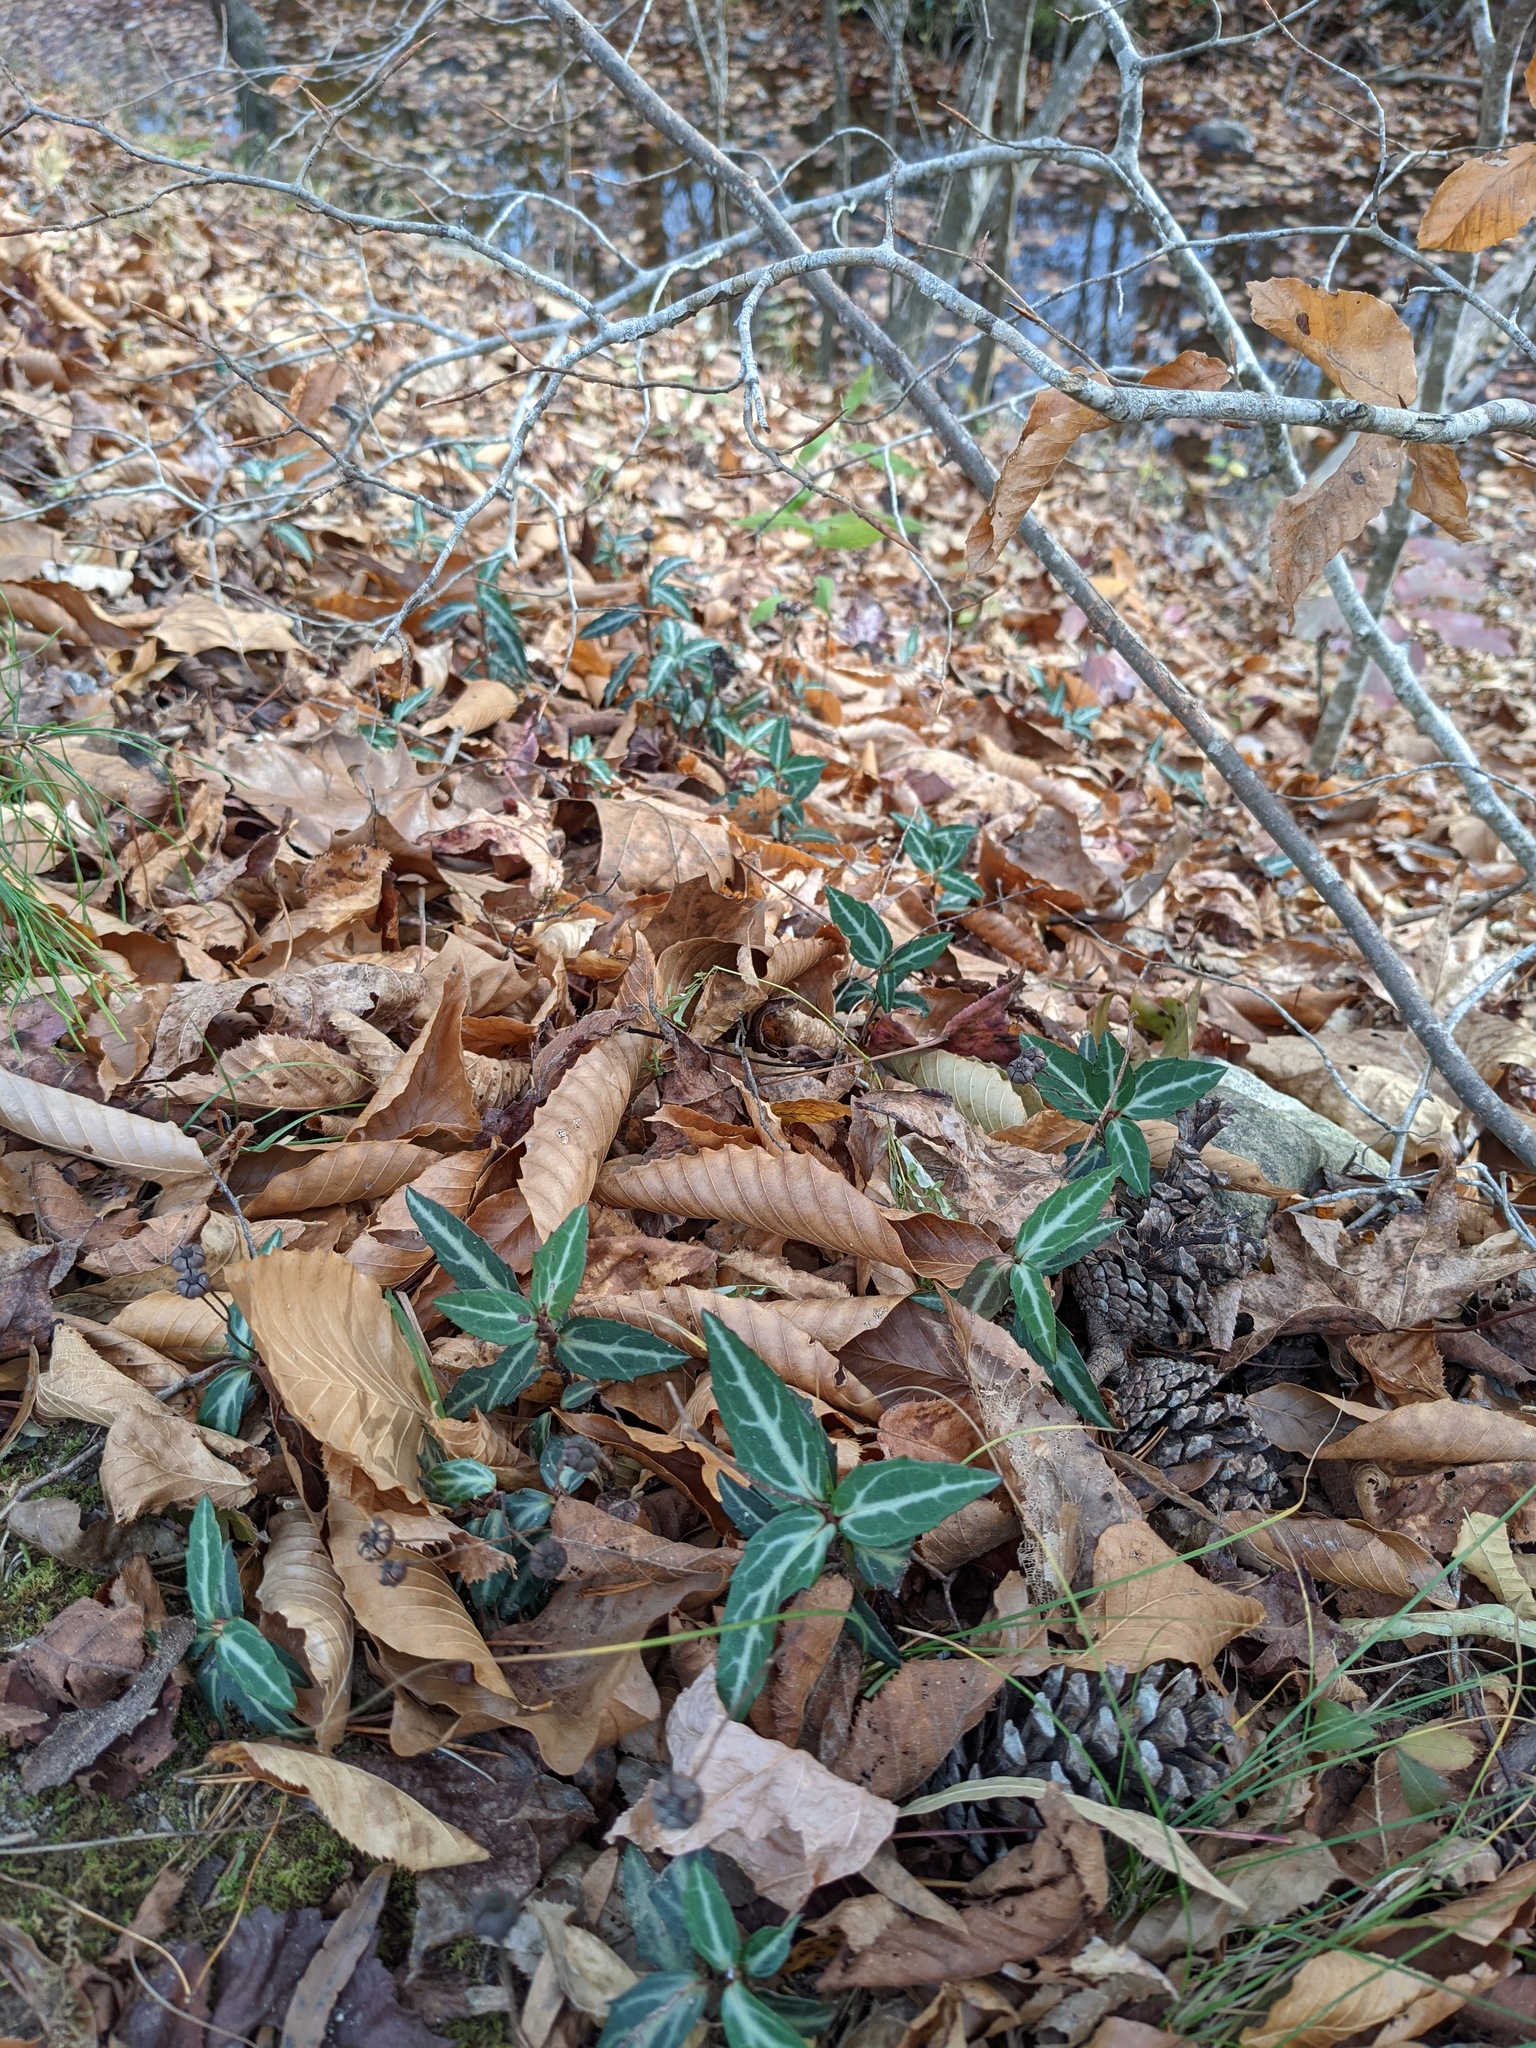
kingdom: Plantae
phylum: Tracheophyta
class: Magnoliopsida
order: Ericales
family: Ericaceae
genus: Chimaphila
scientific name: Chimaphila maculata
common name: Spotted pipsissewa
